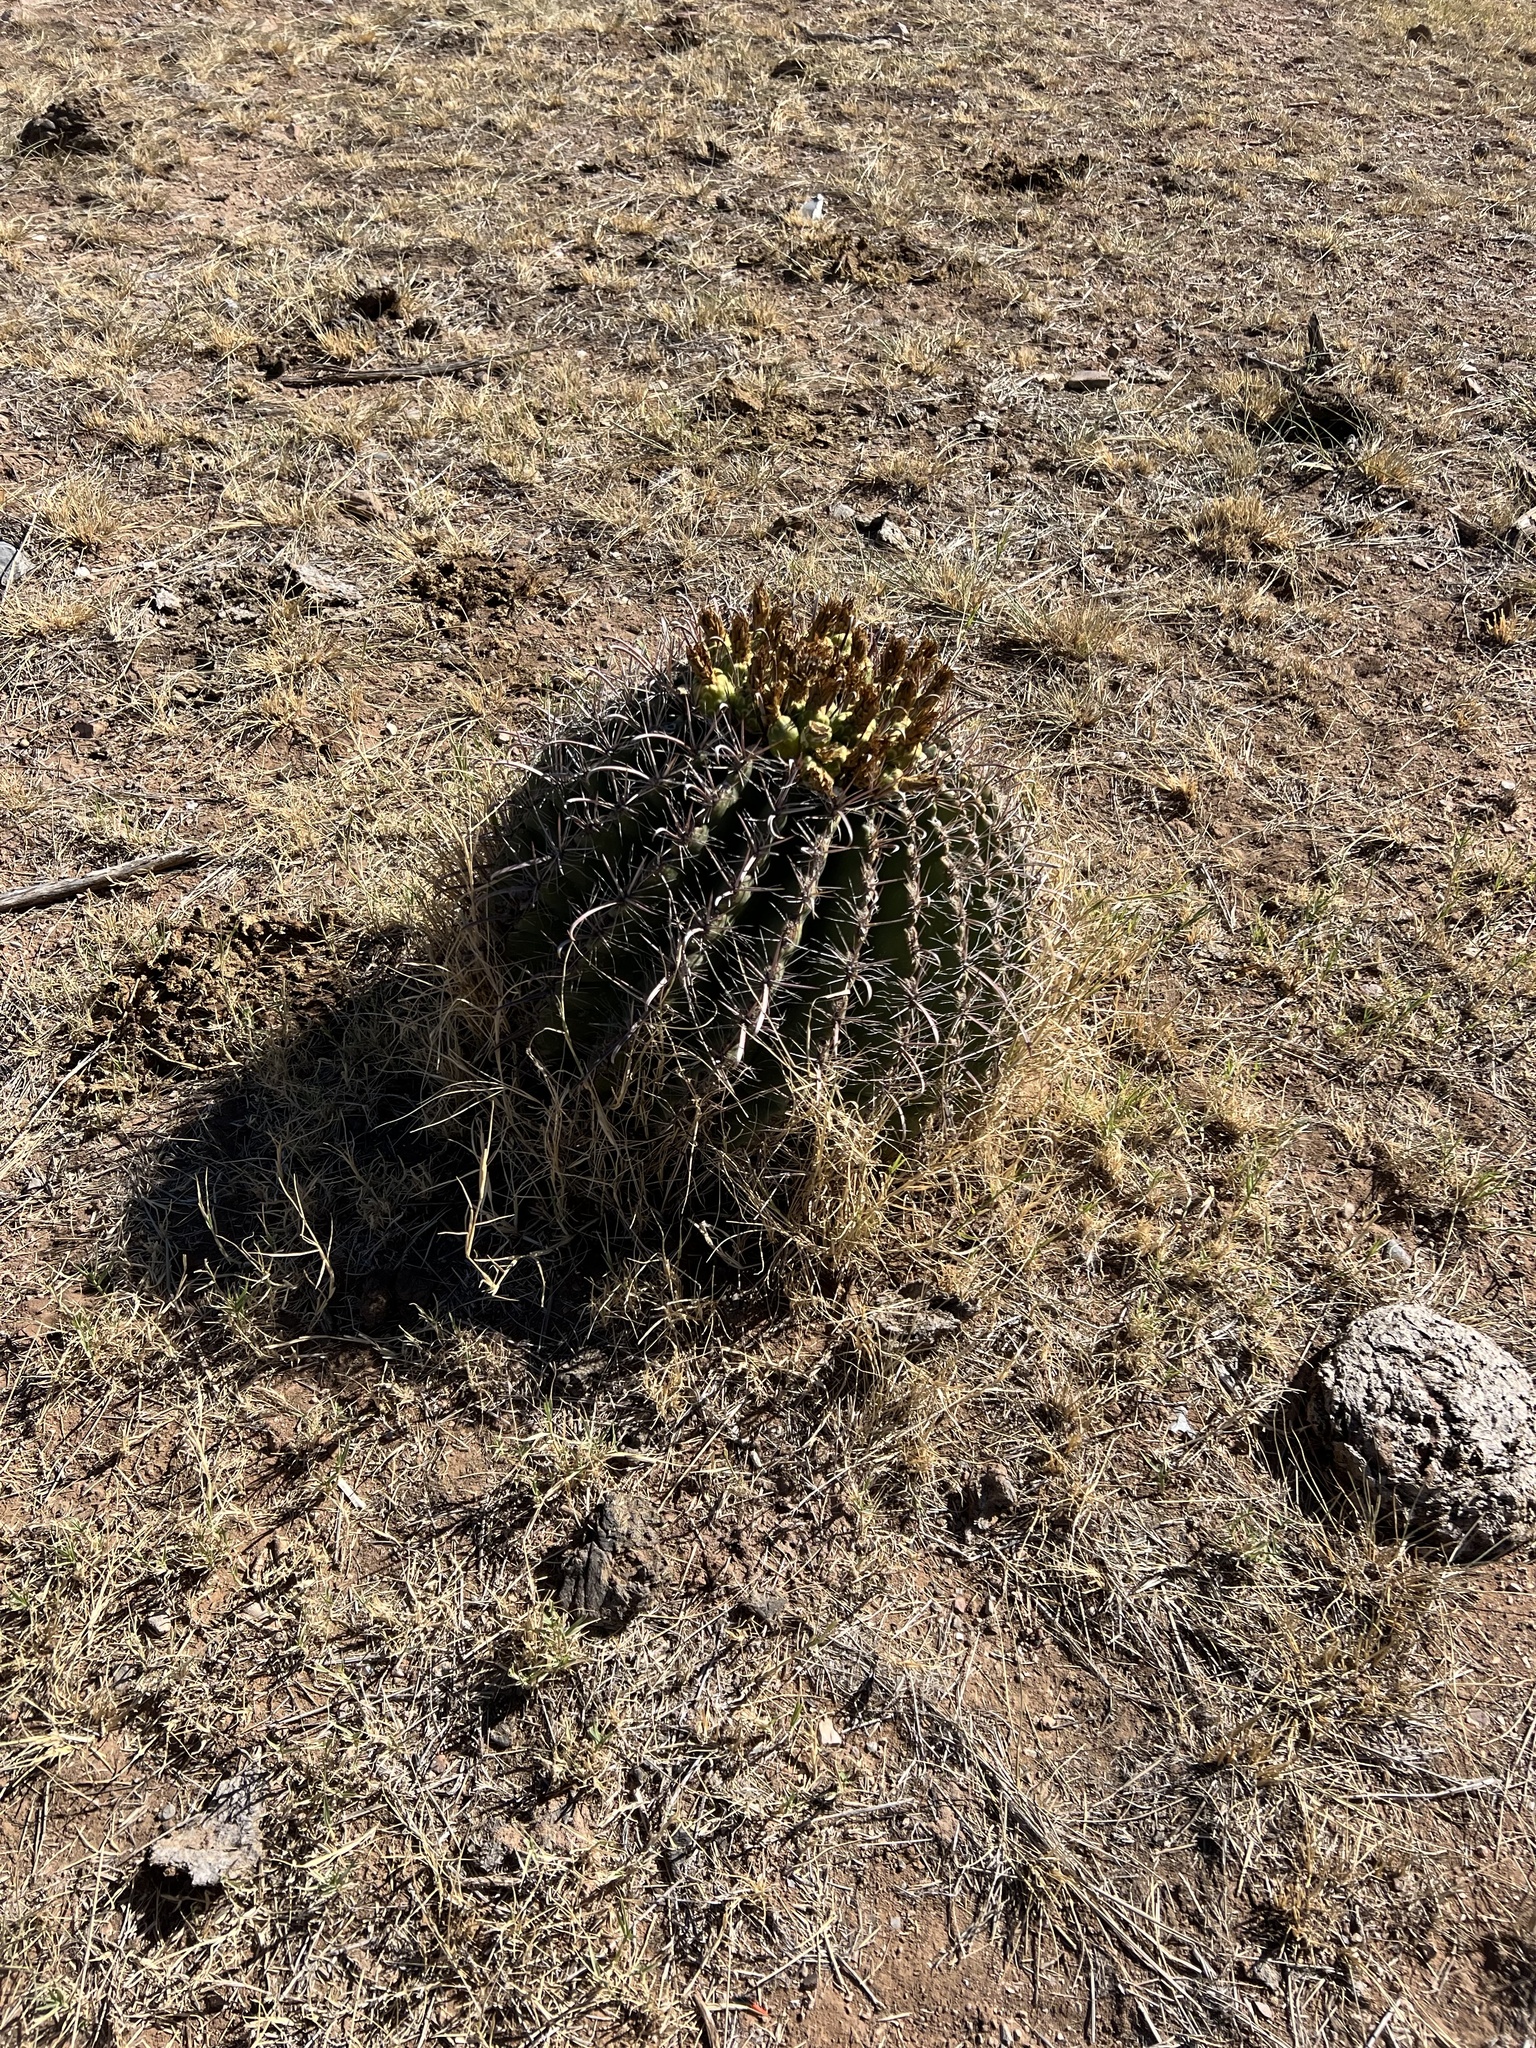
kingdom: Plantae
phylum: Tracheophyta
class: Magnoliopsida
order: Caryophyllales
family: Cactaceae
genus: Ferocactus
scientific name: Ferocactus wislizeni
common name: Candy barrel cactus
